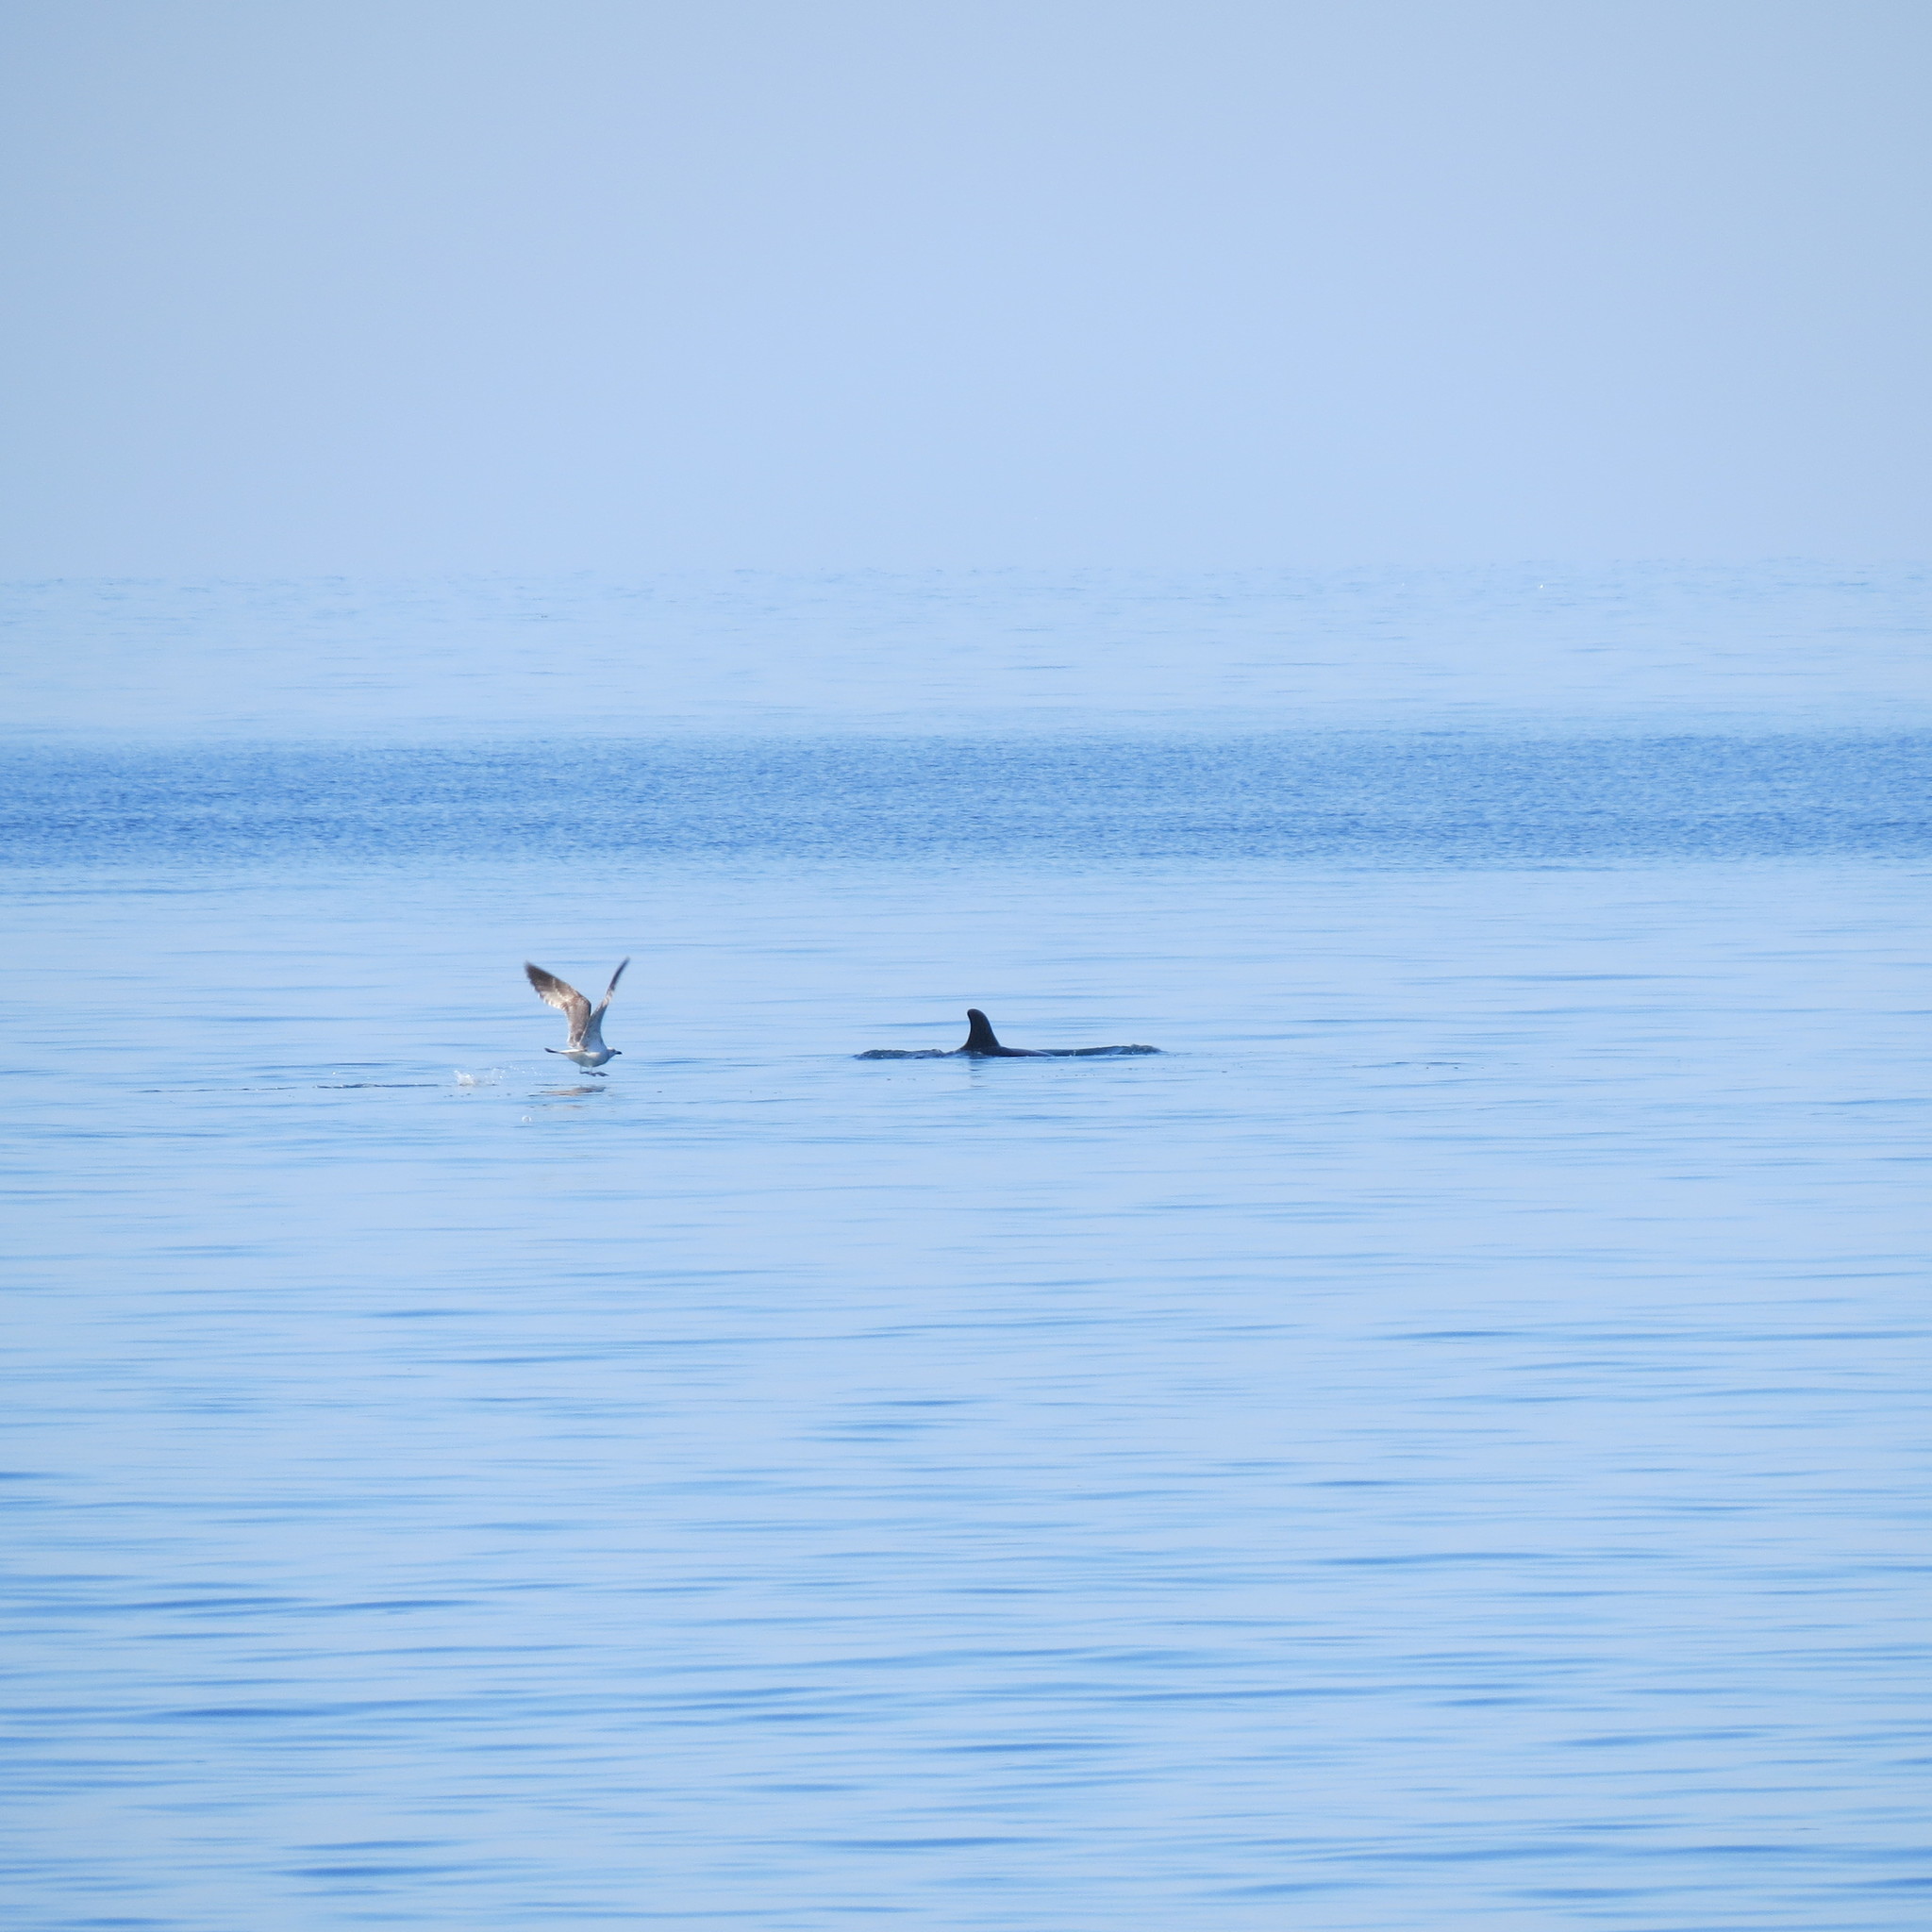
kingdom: Animalia
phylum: Chordata
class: Mammalia
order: Cetacea
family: Delphinidae
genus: Tursiops
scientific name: Tursiops truncatus
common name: Bottlenose dolphin
